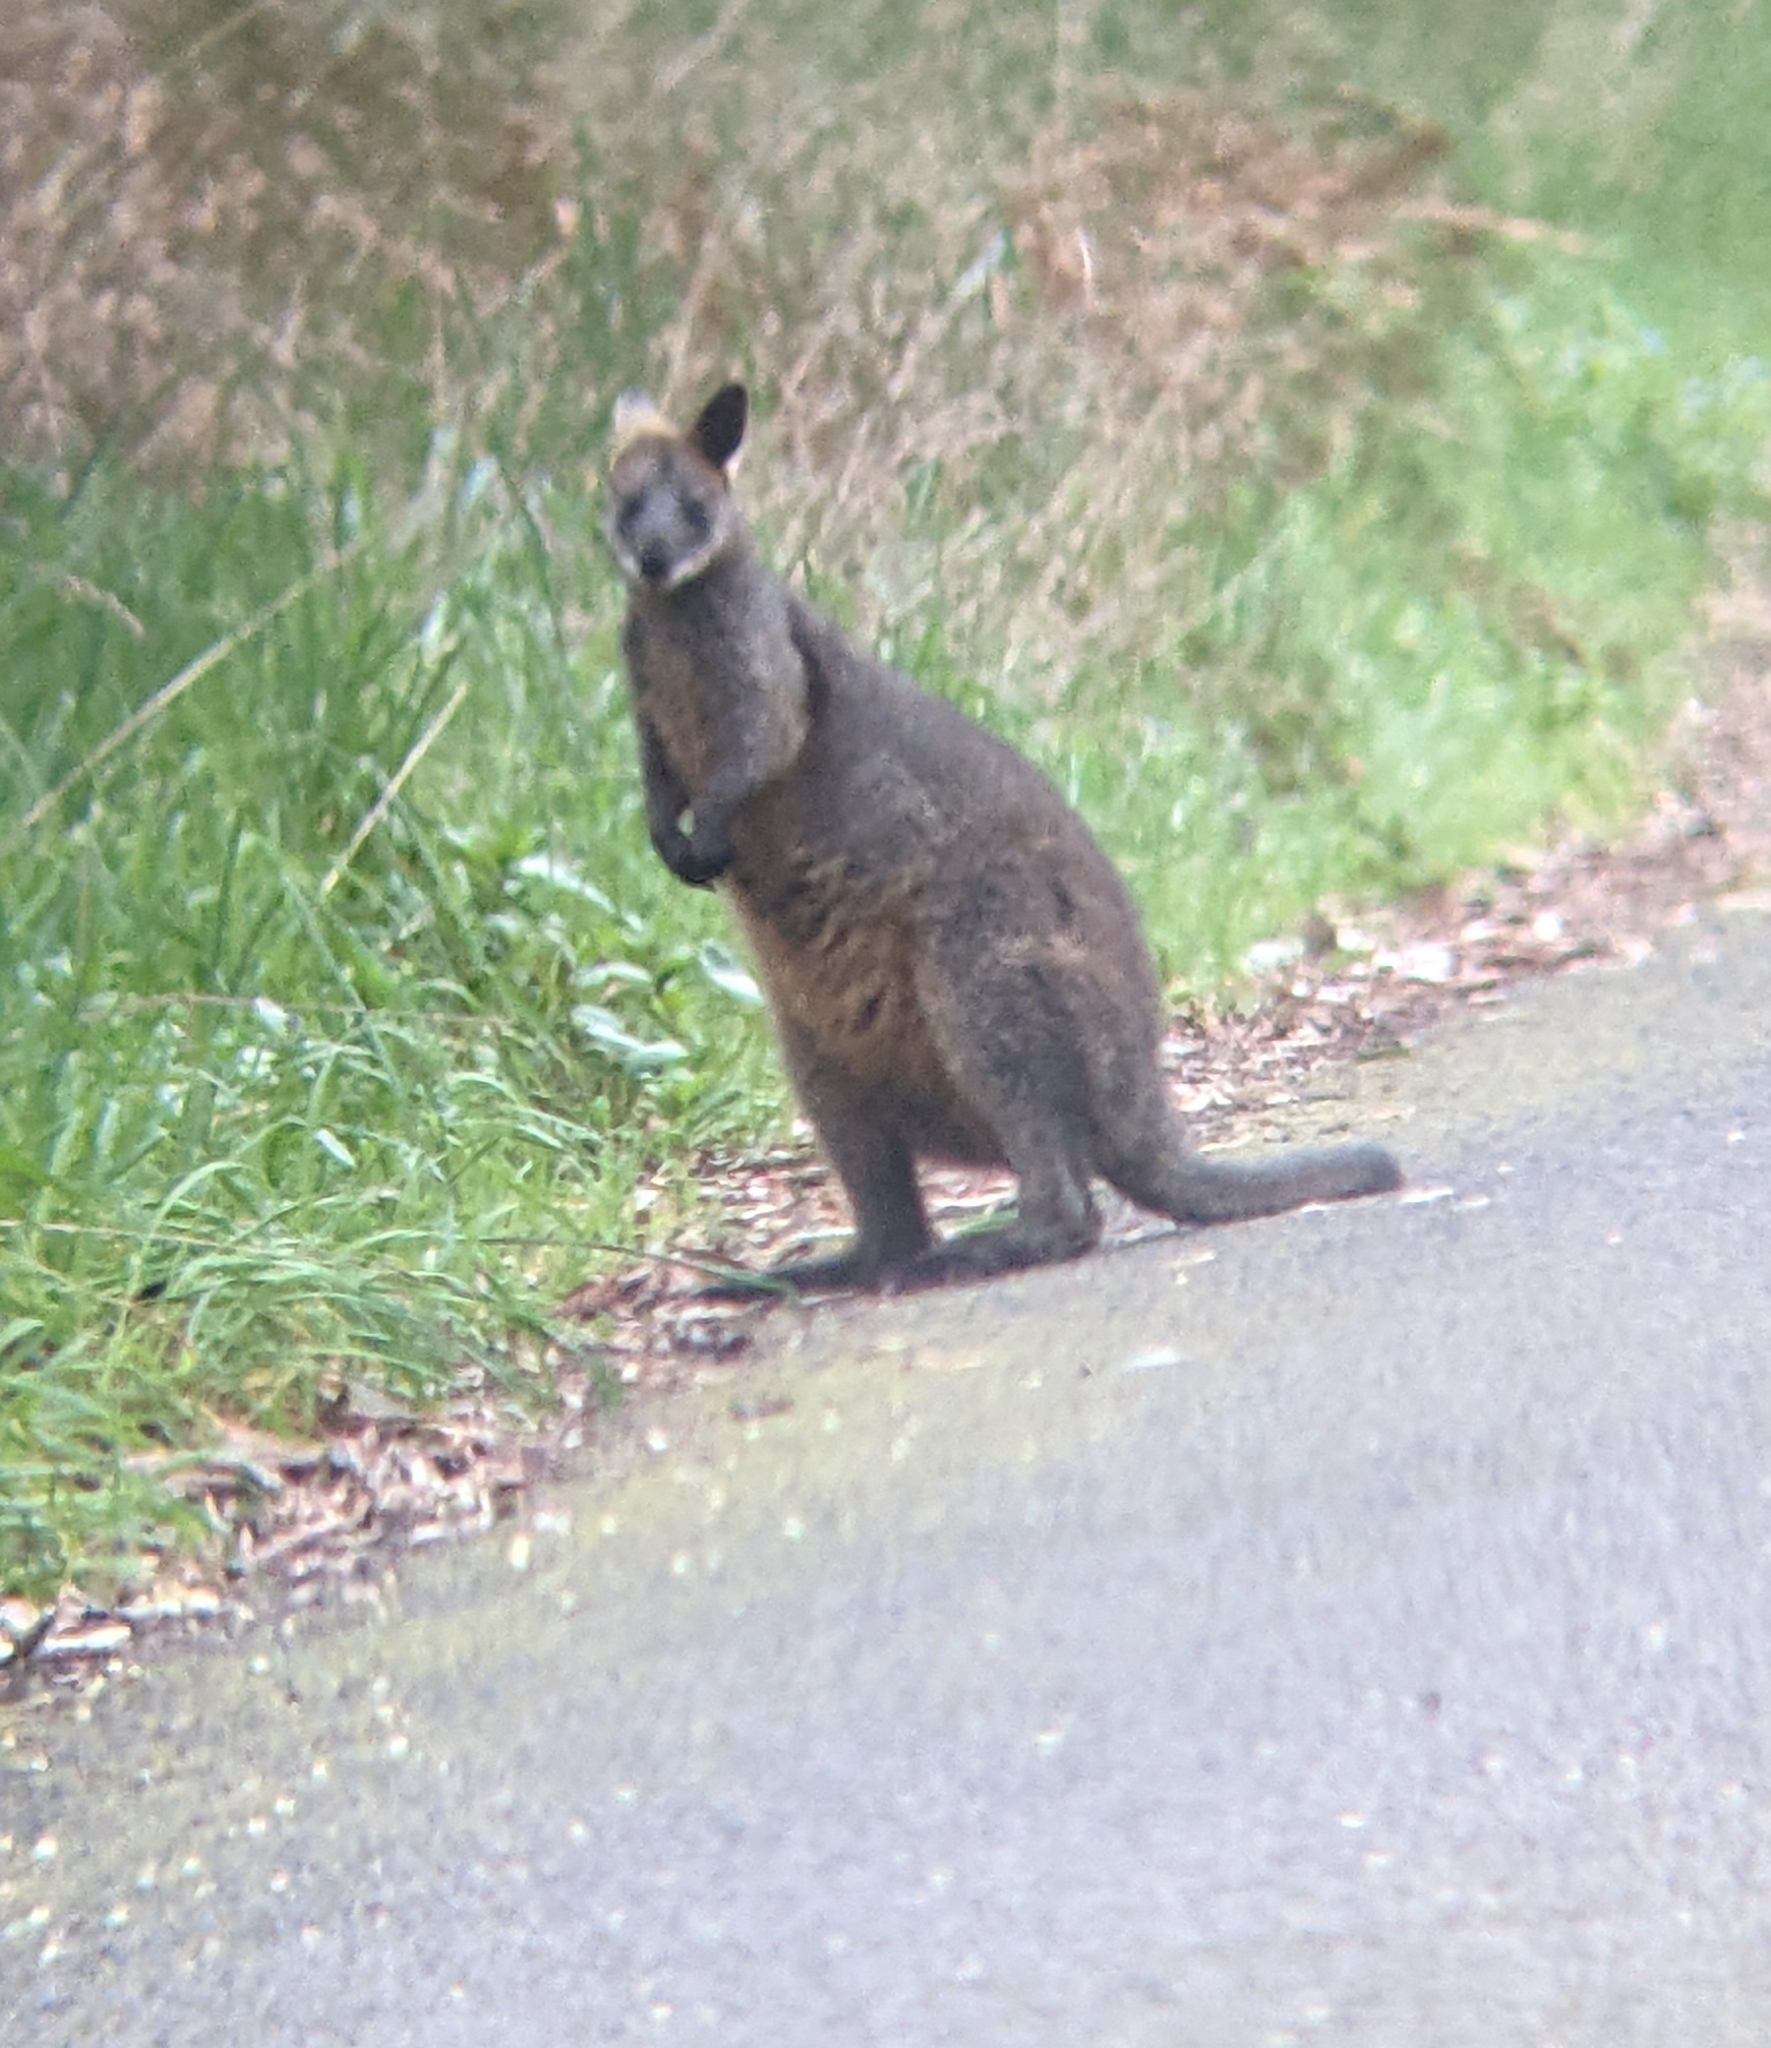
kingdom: Animalia
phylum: Chordata
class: Mammalia
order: Diprotodontia
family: Macropodidae
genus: Wallabia
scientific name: Wallabia bicolor
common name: Swamp wallaby
